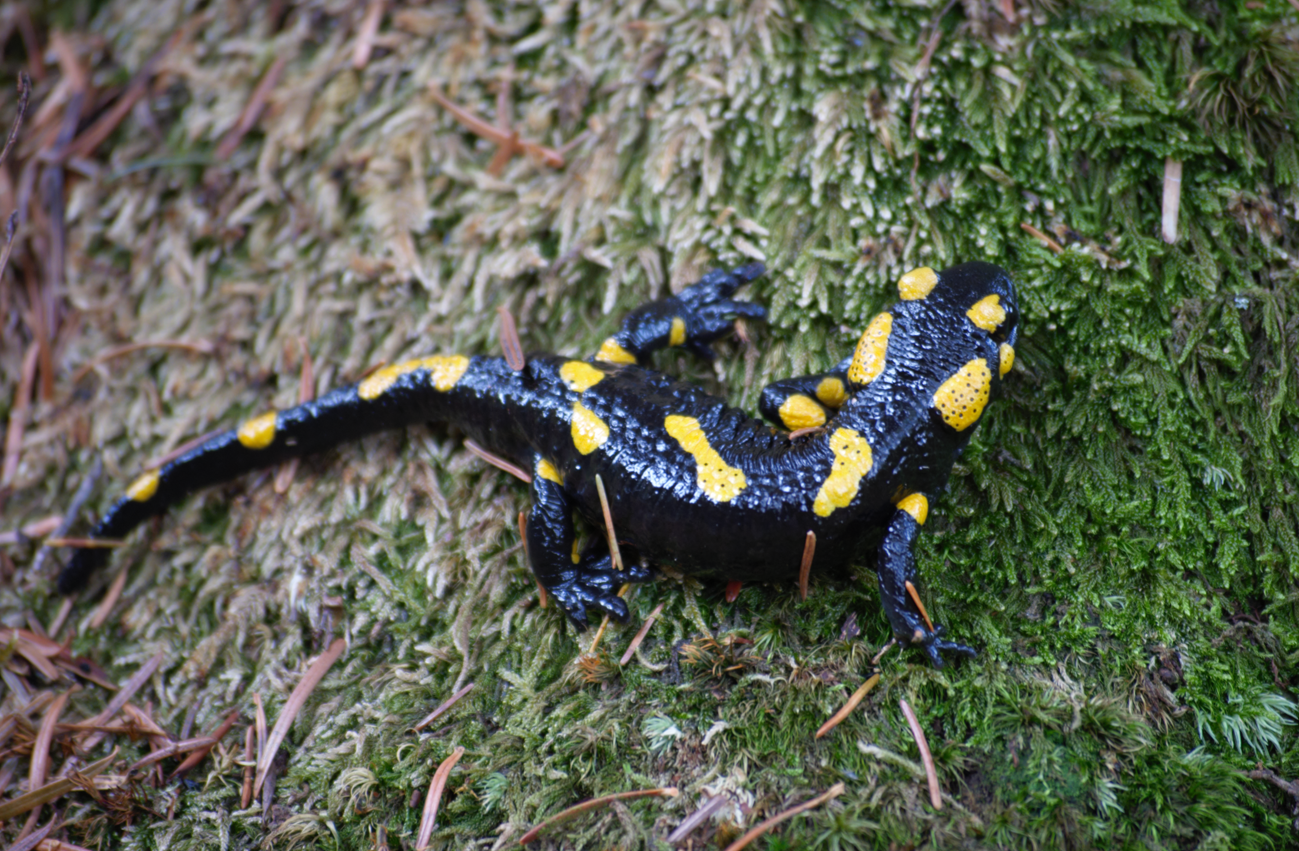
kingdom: Animalia
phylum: Chordata
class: Amphibia
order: Caudata
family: Salamandridae
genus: Salamandra
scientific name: Salamandra salamandra
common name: Fire salamander
